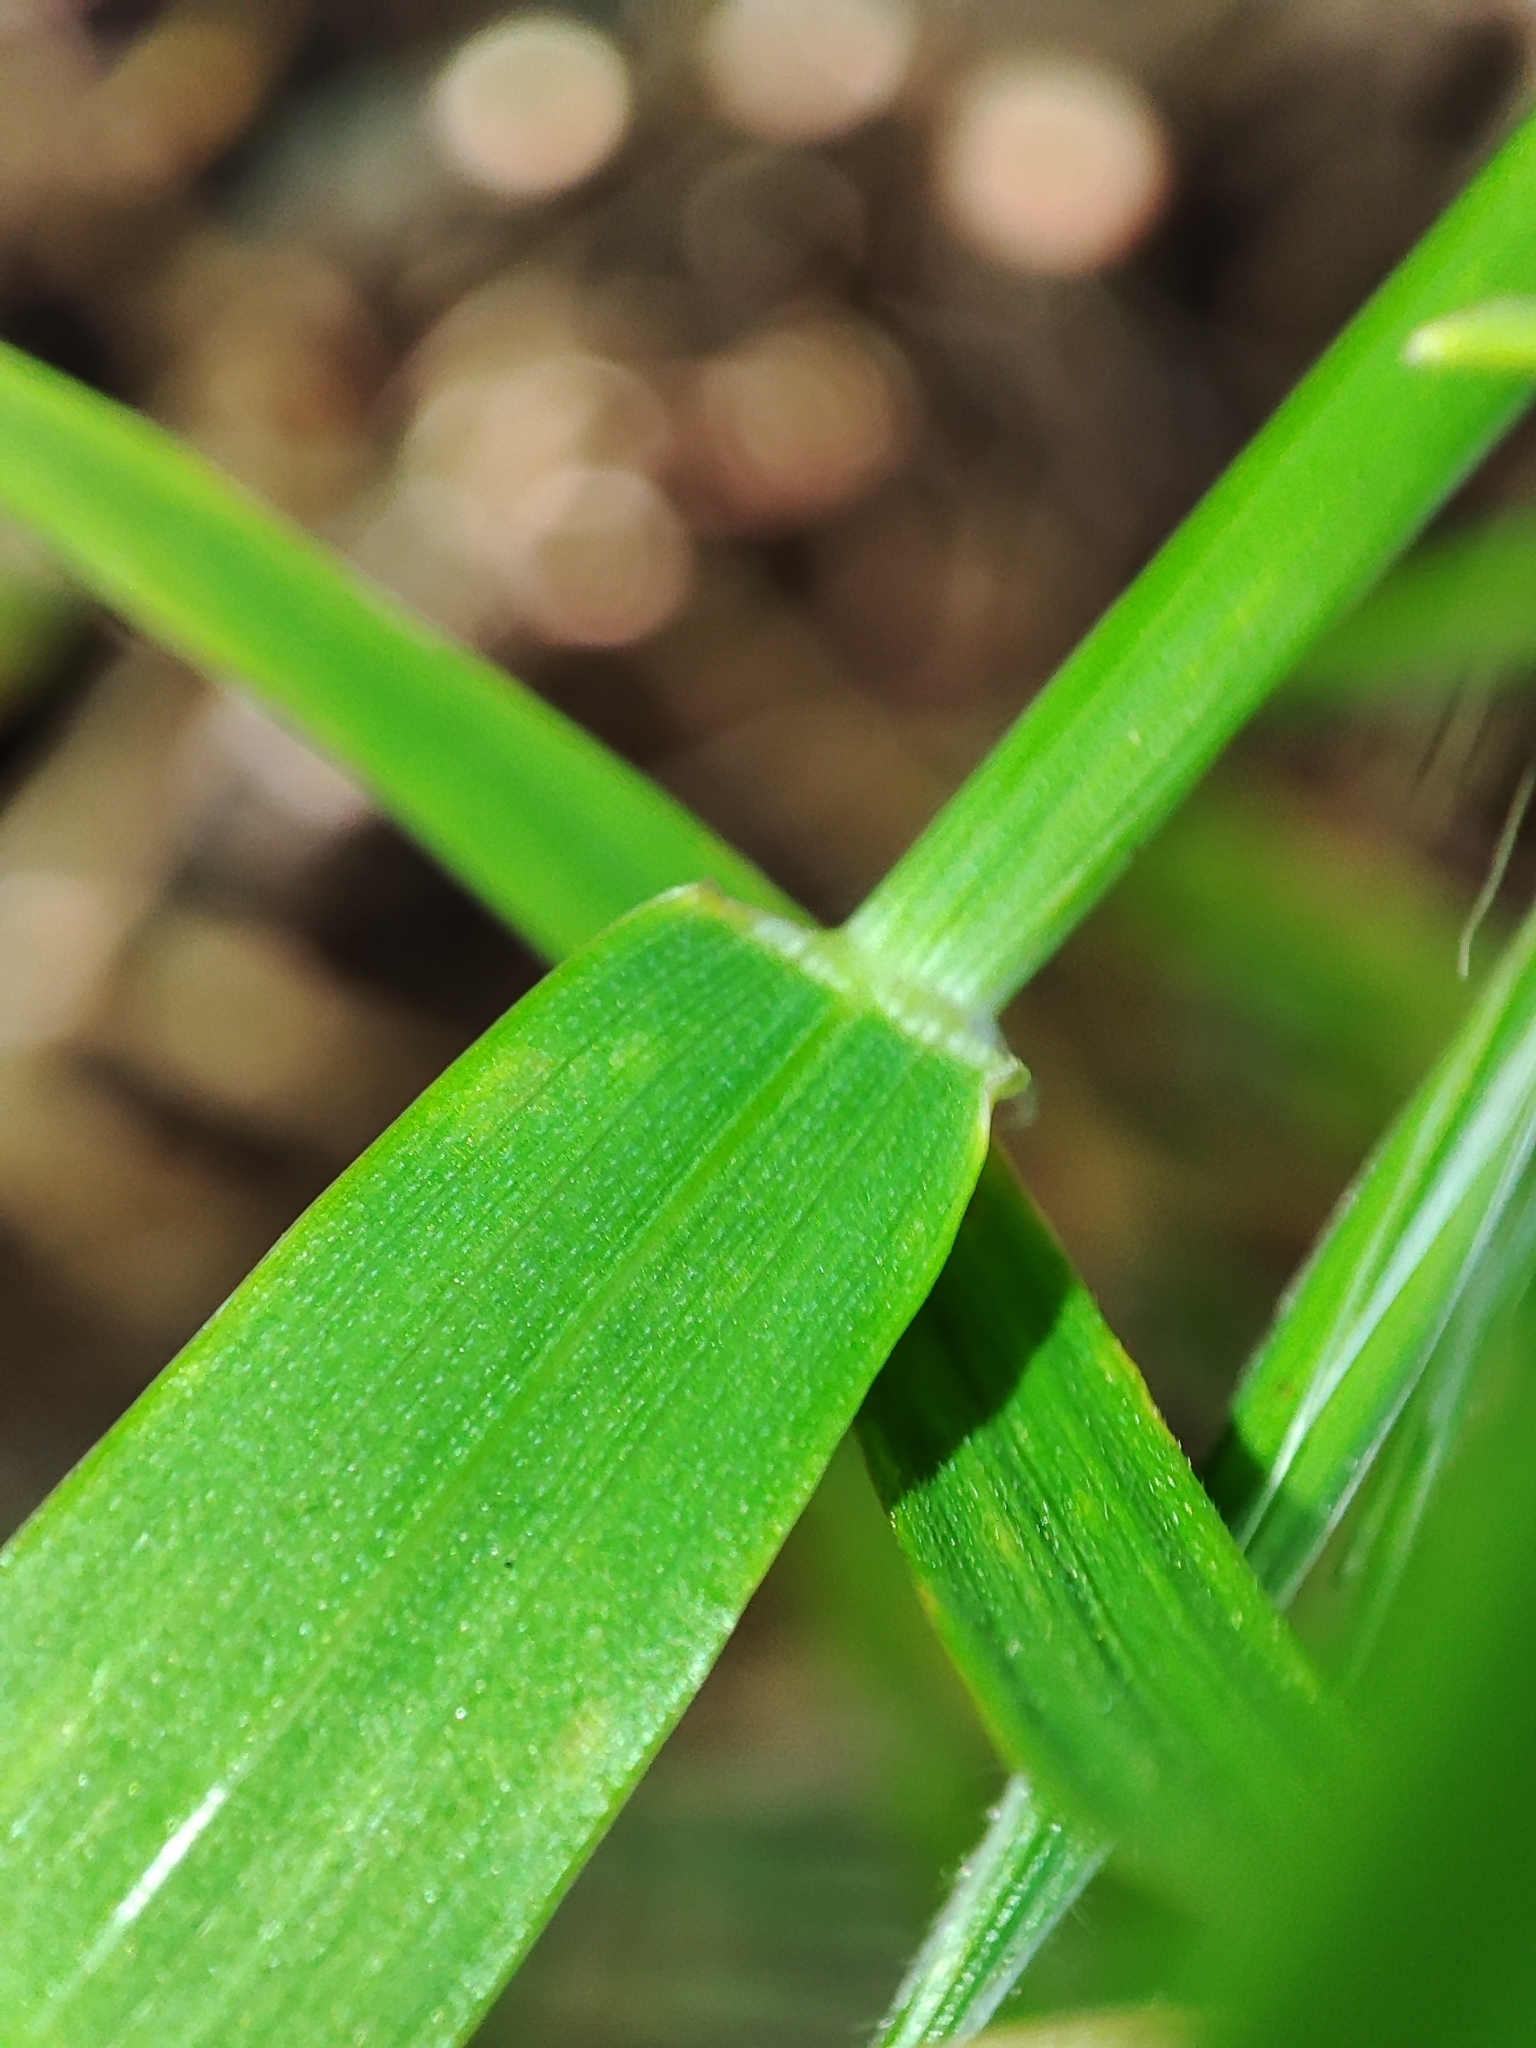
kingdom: Plantae
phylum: Tracheophyta
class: Liliopsida
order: Poales
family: Poaceae
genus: Hordeum
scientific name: Hordeum murinum
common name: Wall barley
